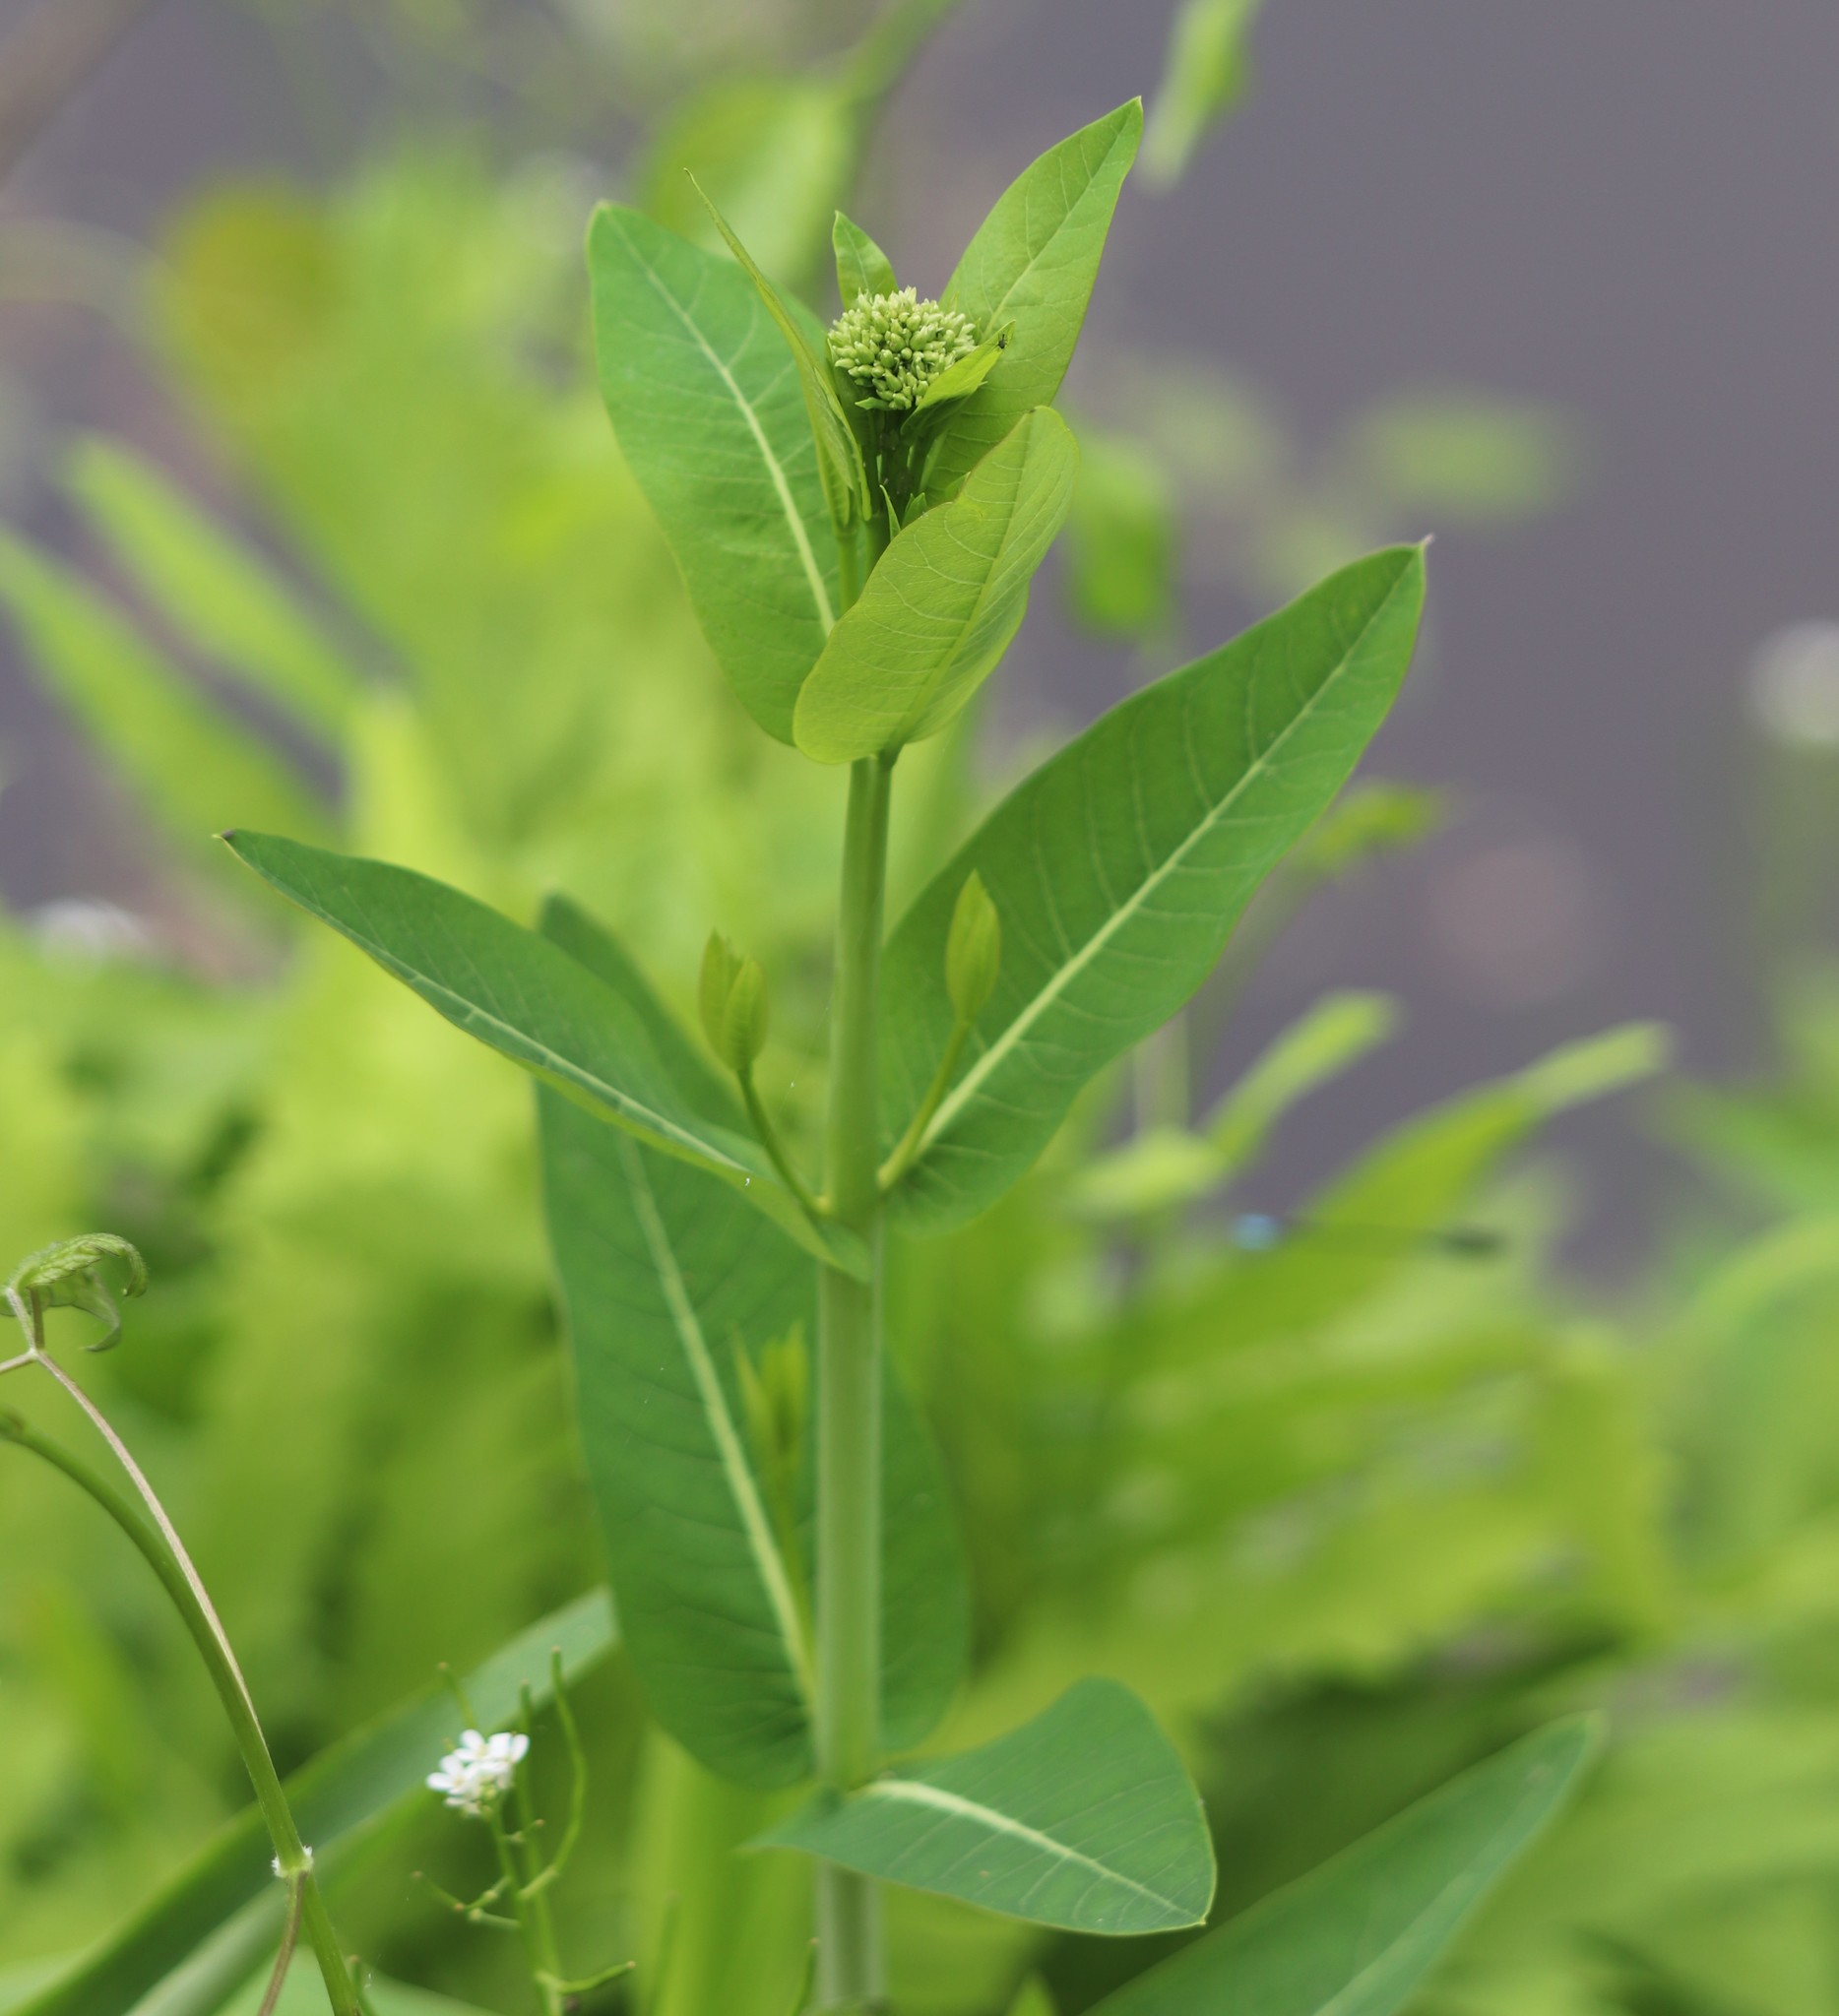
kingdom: Plantae
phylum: Tracheophyta
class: Magnoliopsida
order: Gentianales
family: Apocynaceae
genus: Apocynum
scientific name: Apocynum cannabinum
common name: Hemp dogbane
